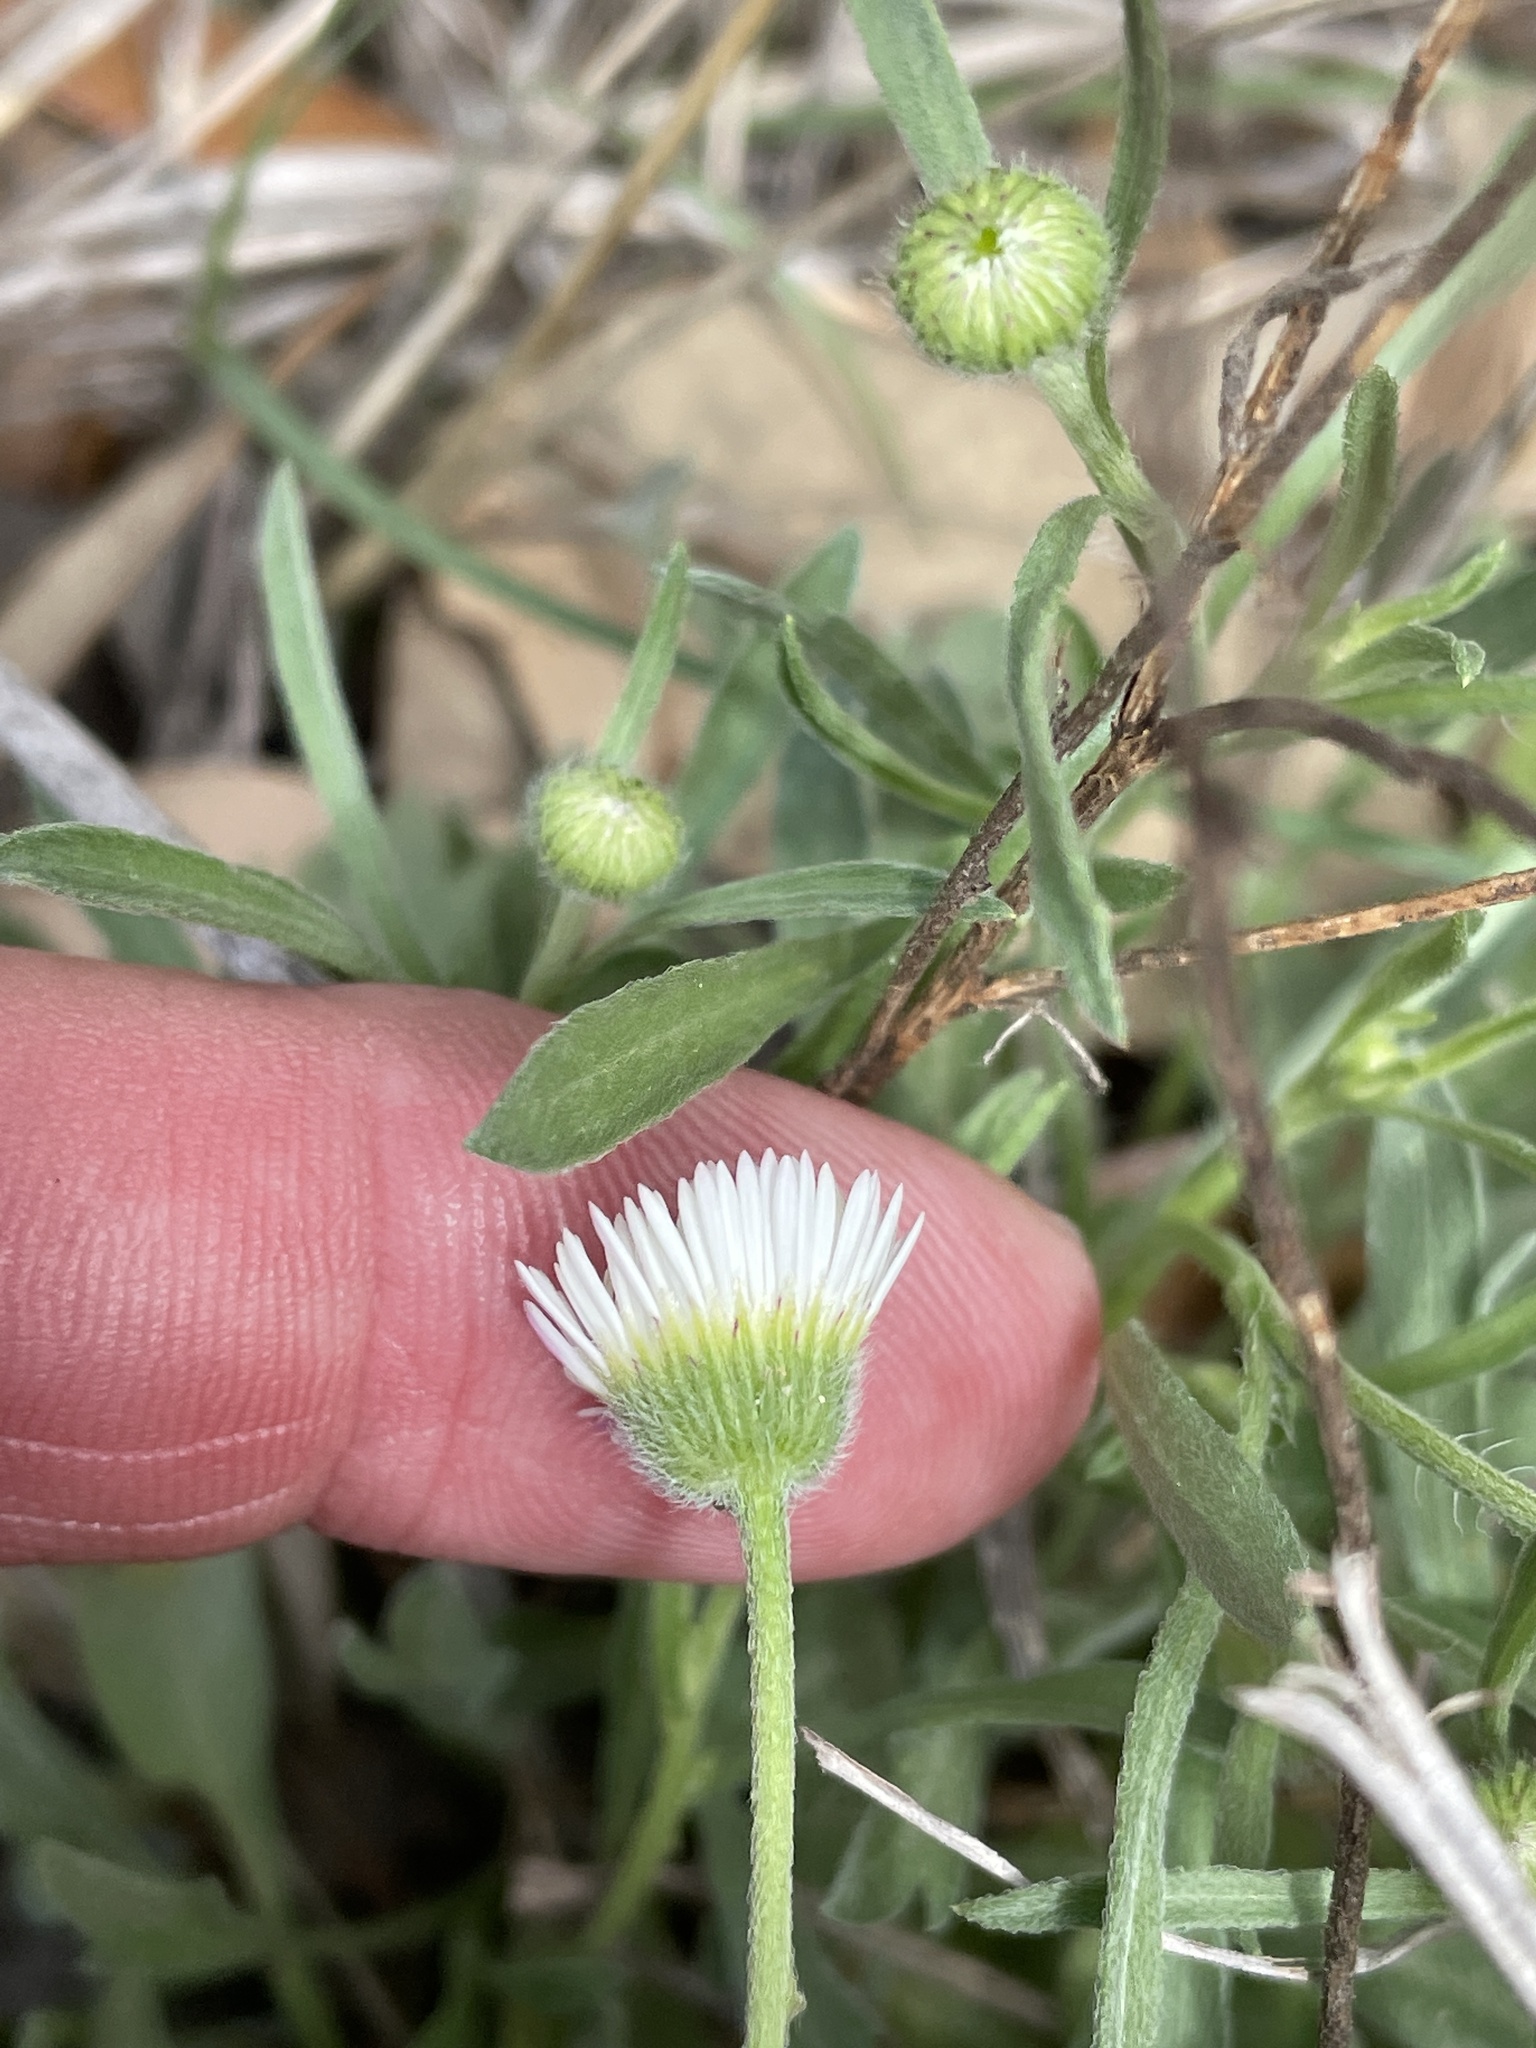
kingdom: Plantae
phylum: Tracheophyta
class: Magnoliopsida
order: Asterales
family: Asteraceae
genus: Erigeron
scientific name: Erigeron modestus
